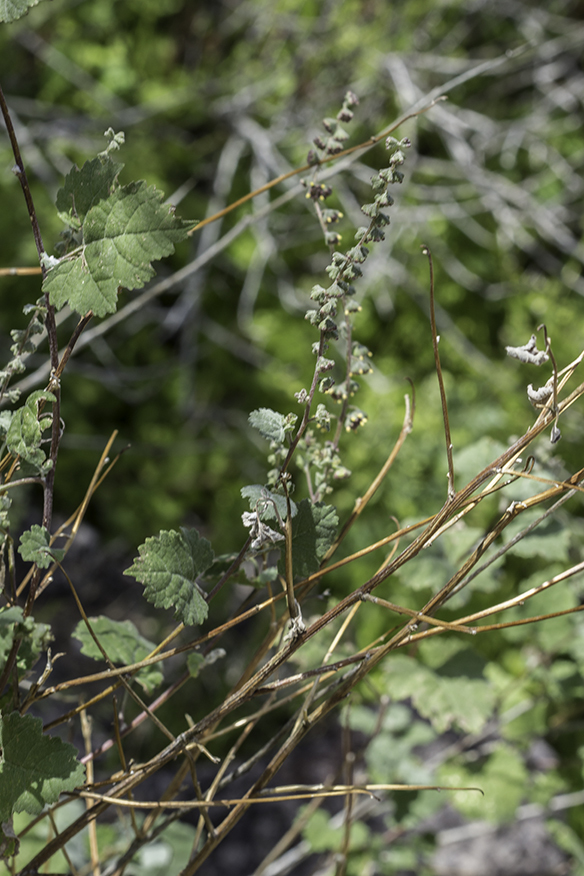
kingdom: Plantae
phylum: Tracheophyta
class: Magnoliopsida
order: Asterales
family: Asteraceae
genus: Ambrosia
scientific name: Ambrosia cordifolia
